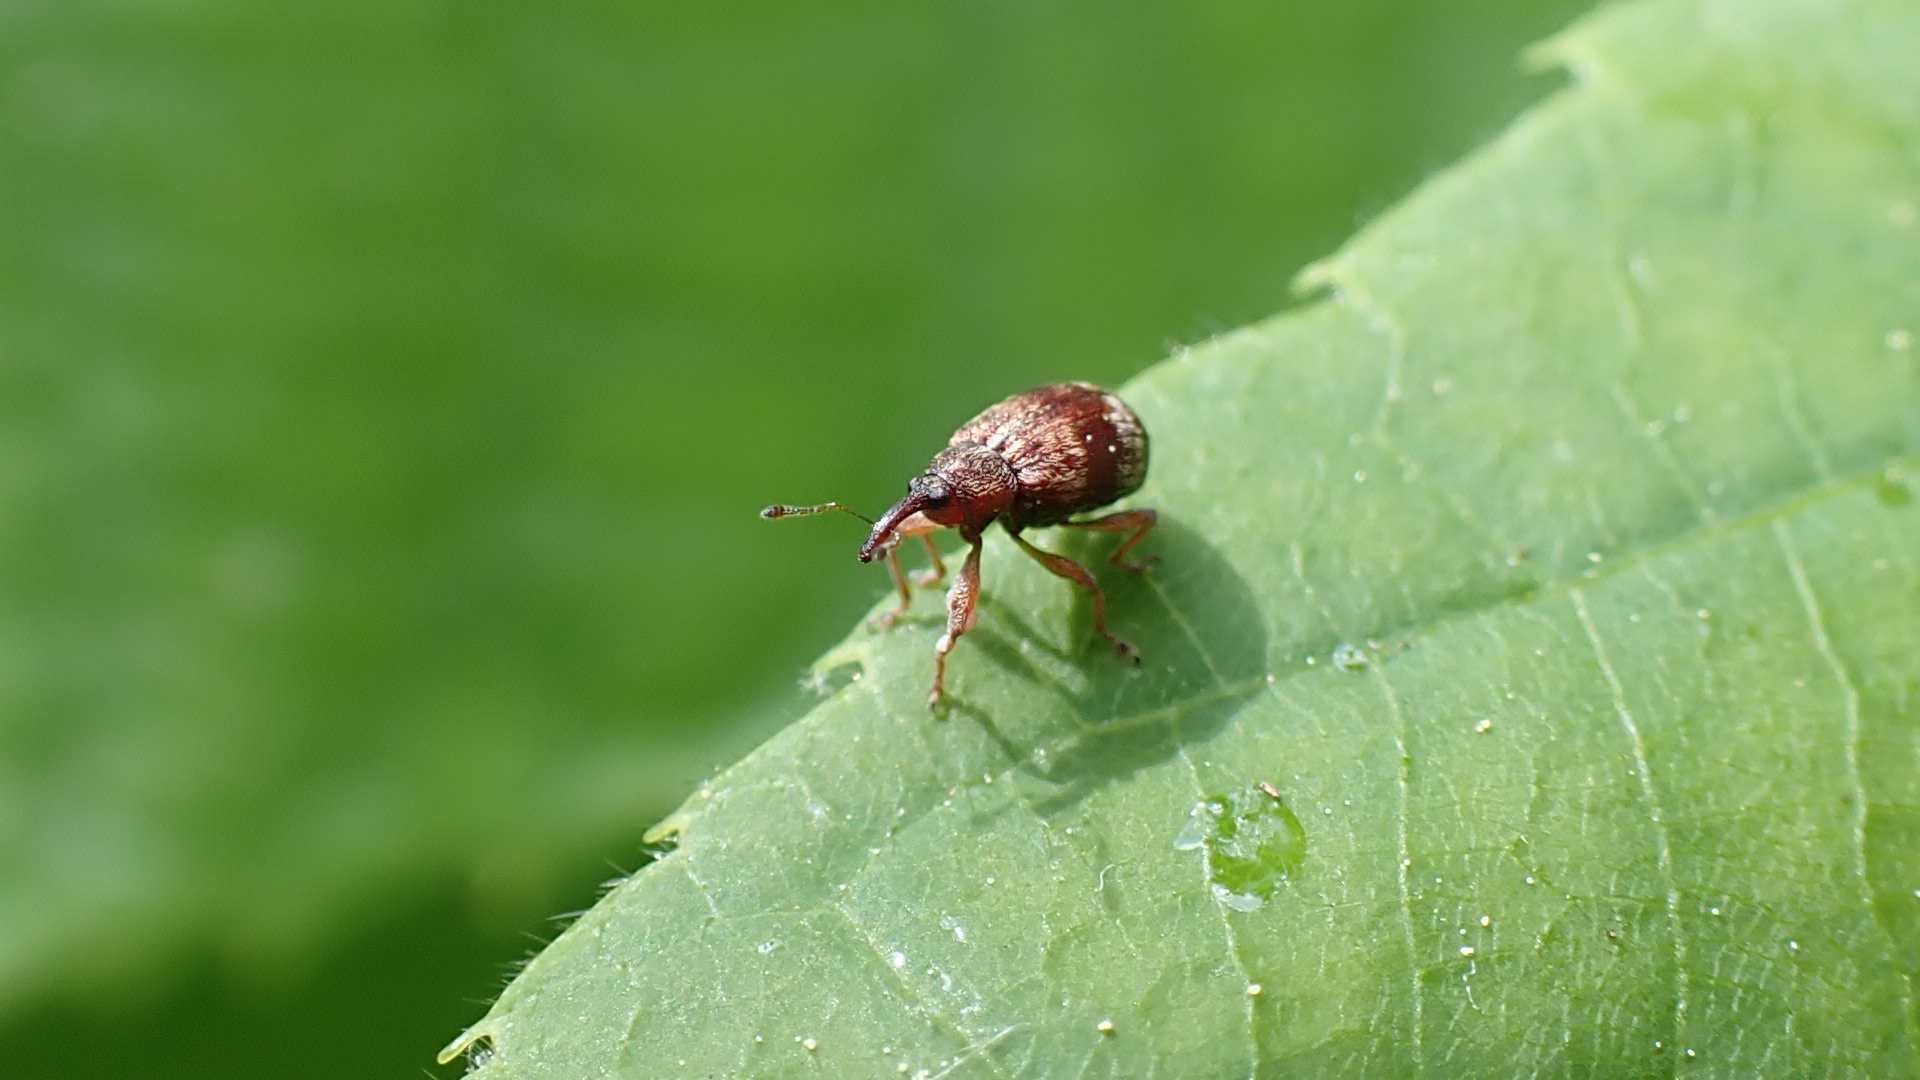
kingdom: Animalia
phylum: Arthropoda
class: Insecta
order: Coleoptera
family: Curculionidae
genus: Anthonomus
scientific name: Anthonomus pedicularius
